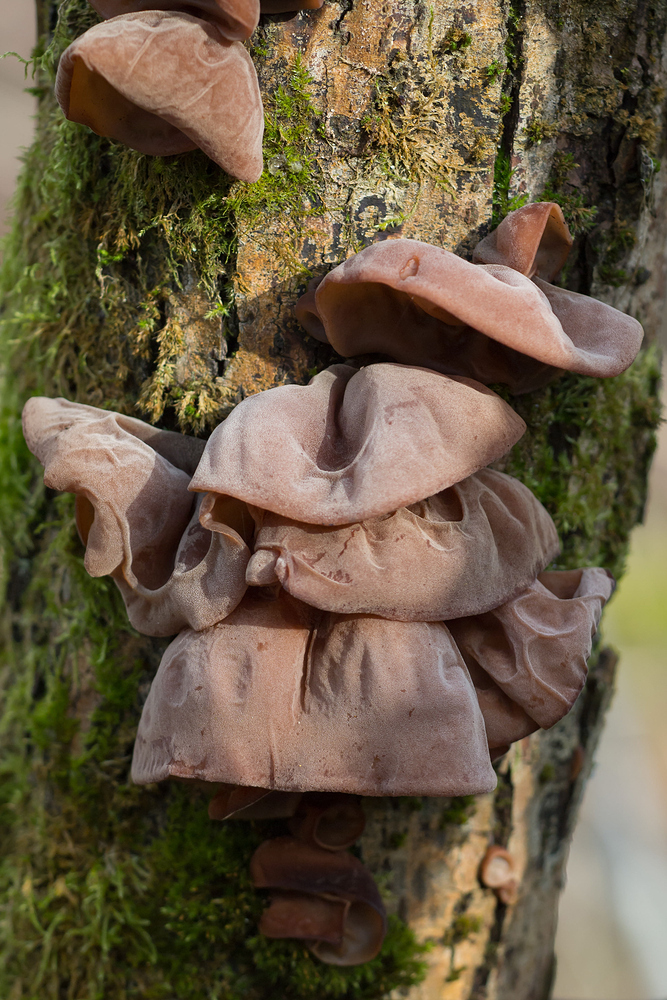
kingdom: Fungi
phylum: Basidiomycota
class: Agaricomycetes
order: Auriculariales
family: Auriculariaceae
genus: Auricularia
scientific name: Auricularia auricula-judae
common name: Jelly ear
